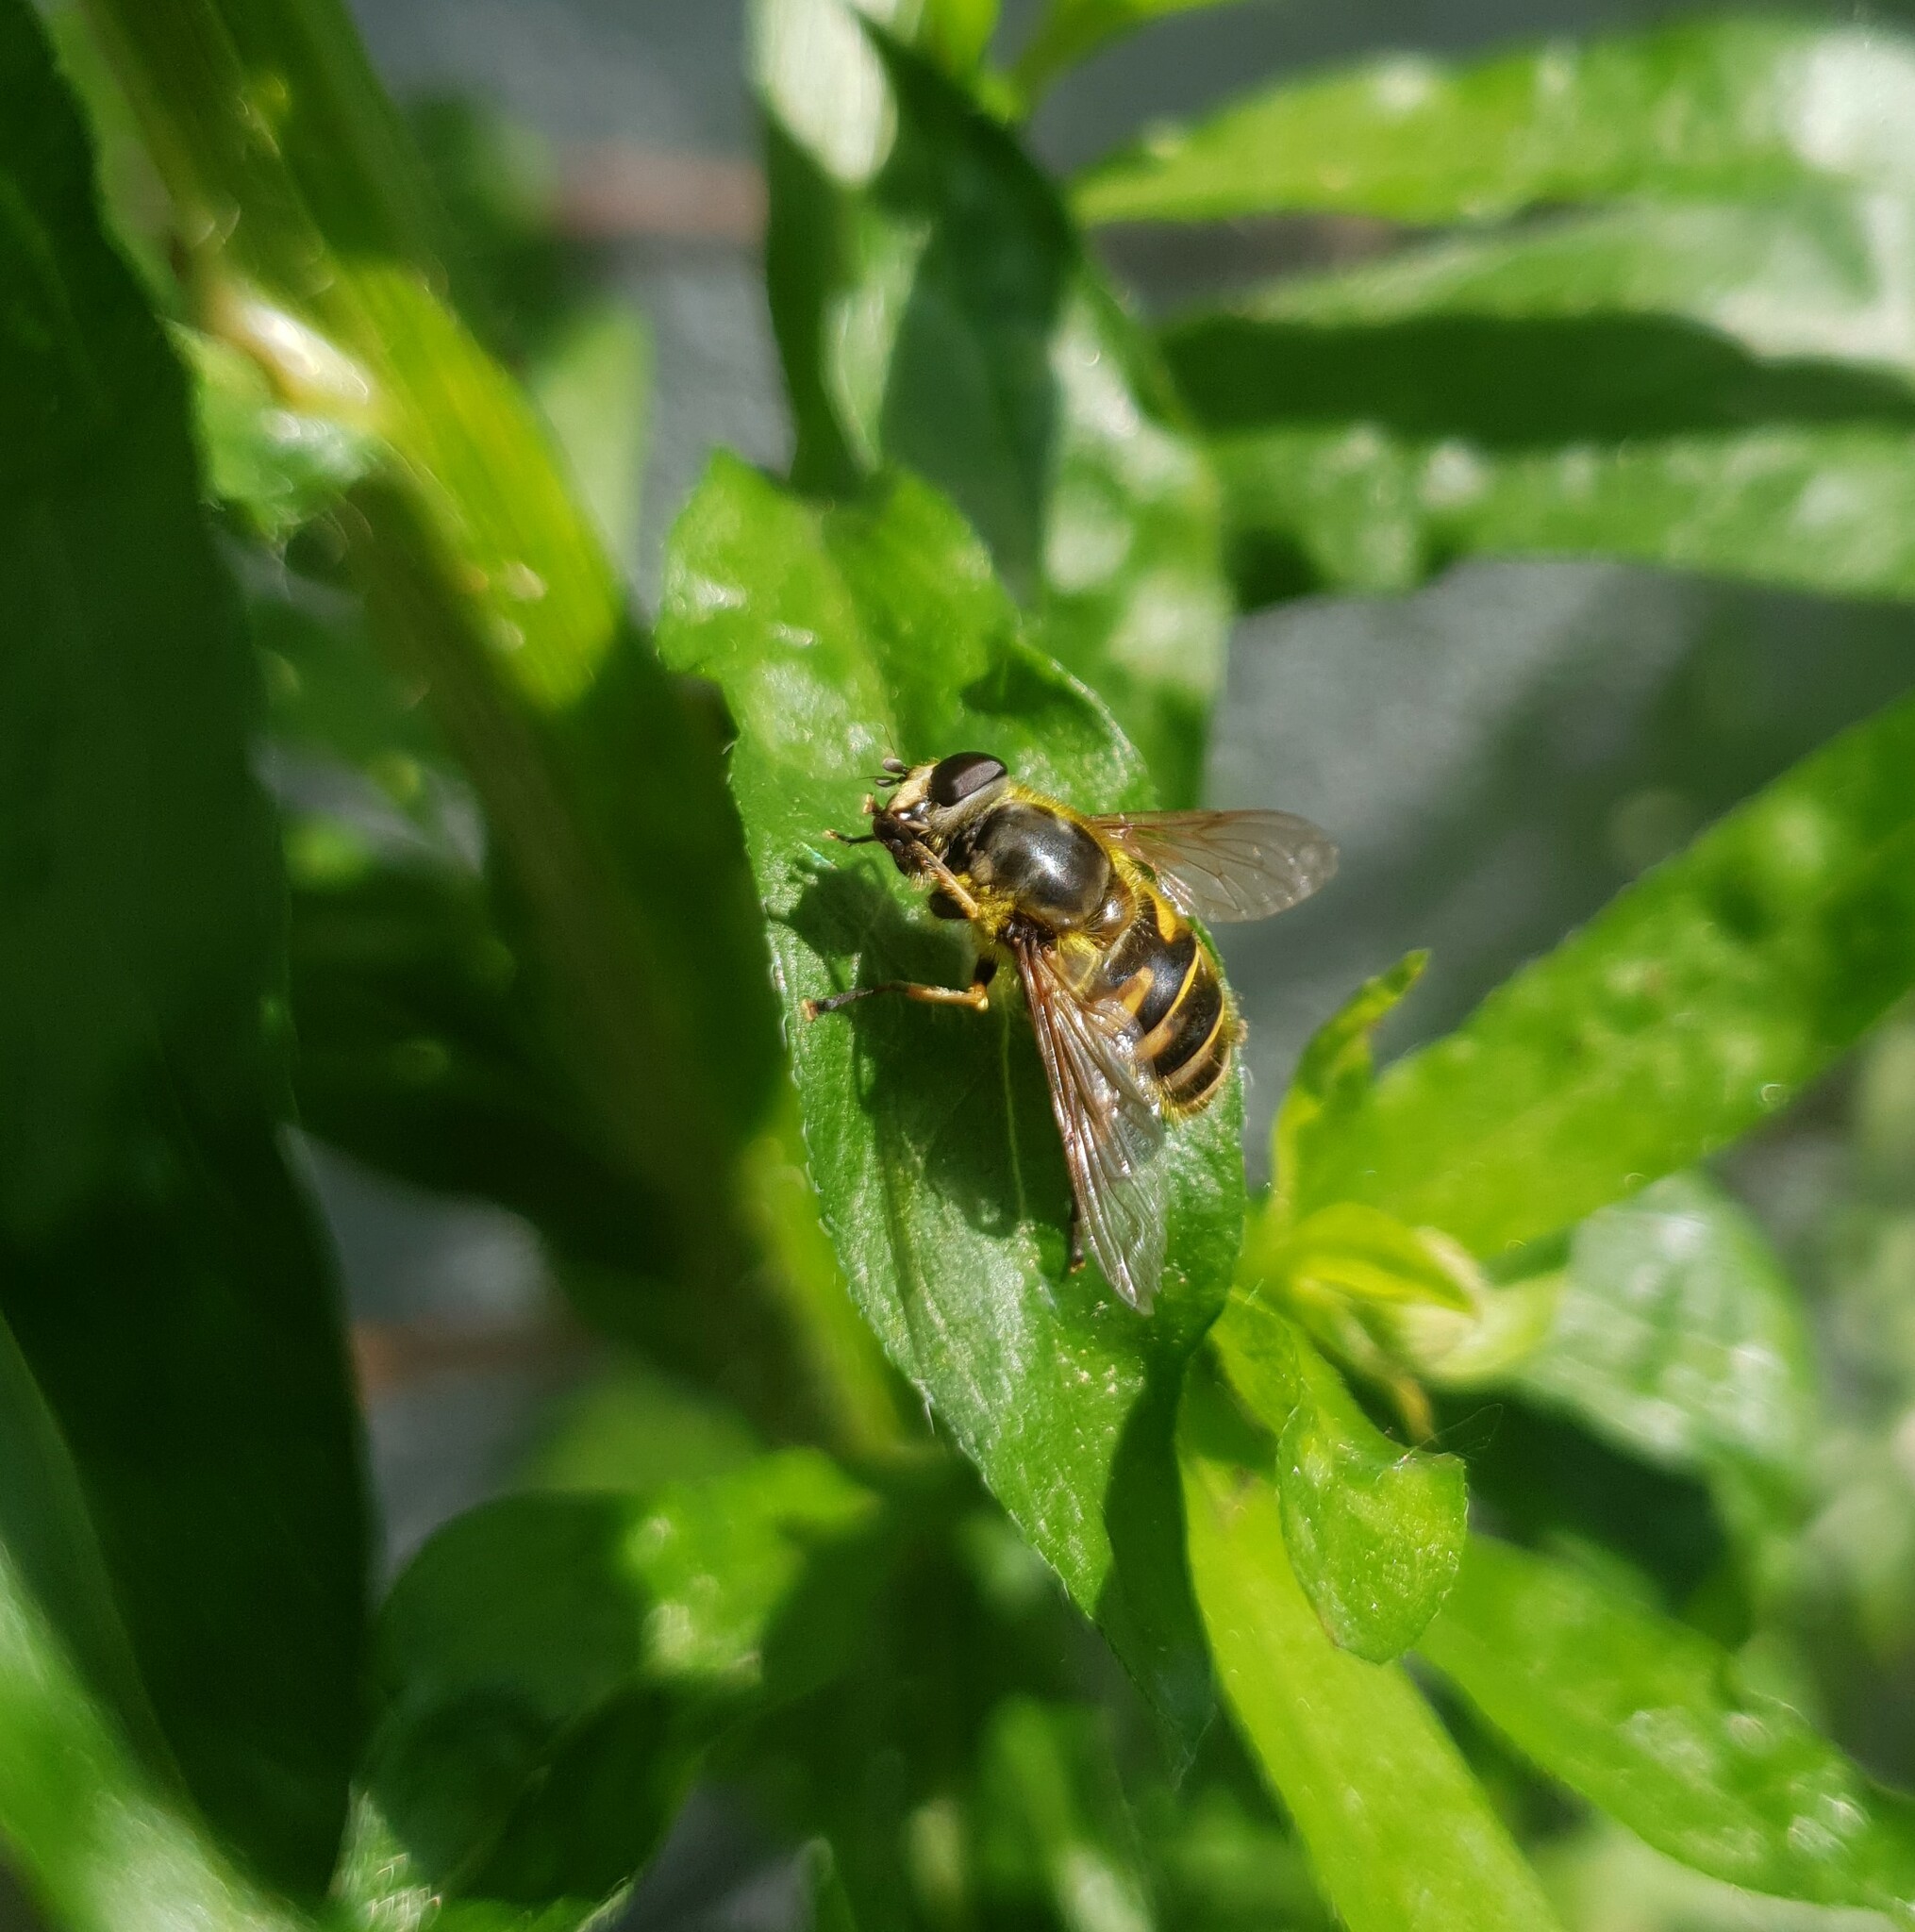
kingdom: Animalia
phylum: Arthropoda
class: Insecta
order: Diptera
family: Syrphidae
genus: Myathropa
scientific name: Myathropa florea
